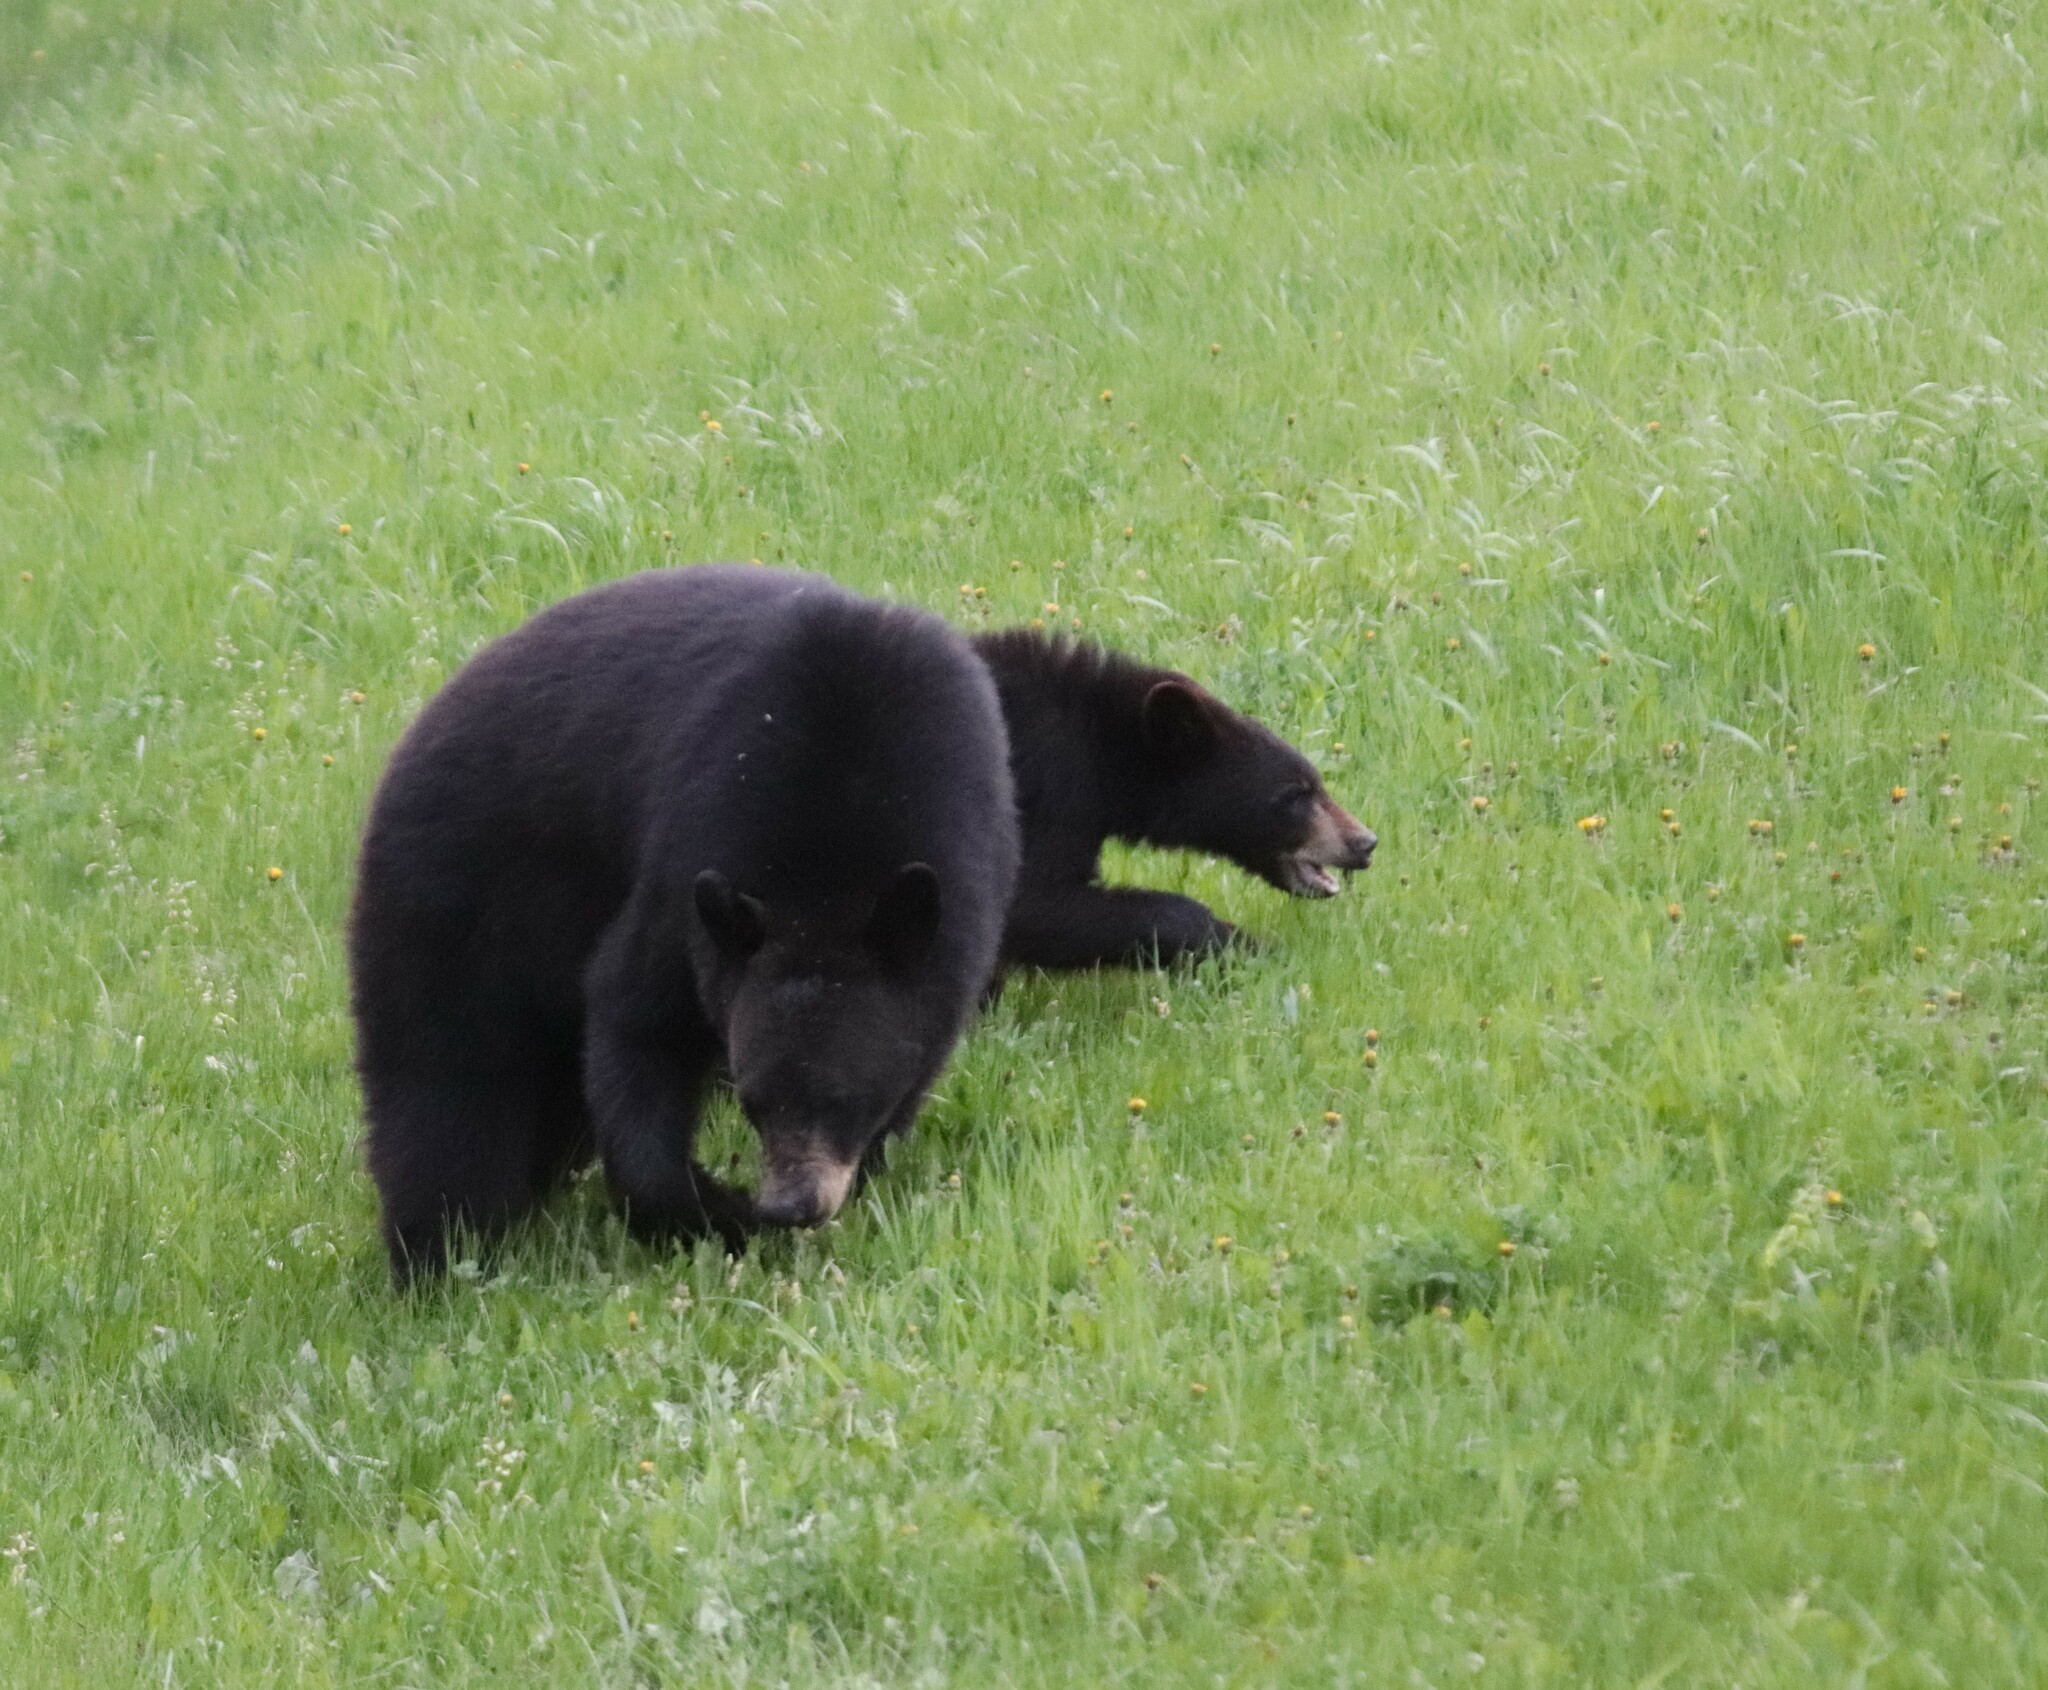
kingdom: Animalia
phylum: Chordata
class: Mammalia
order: Carnivora
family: Ursidae
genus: Ursus
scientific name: Ursus americanus
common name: American black bear
